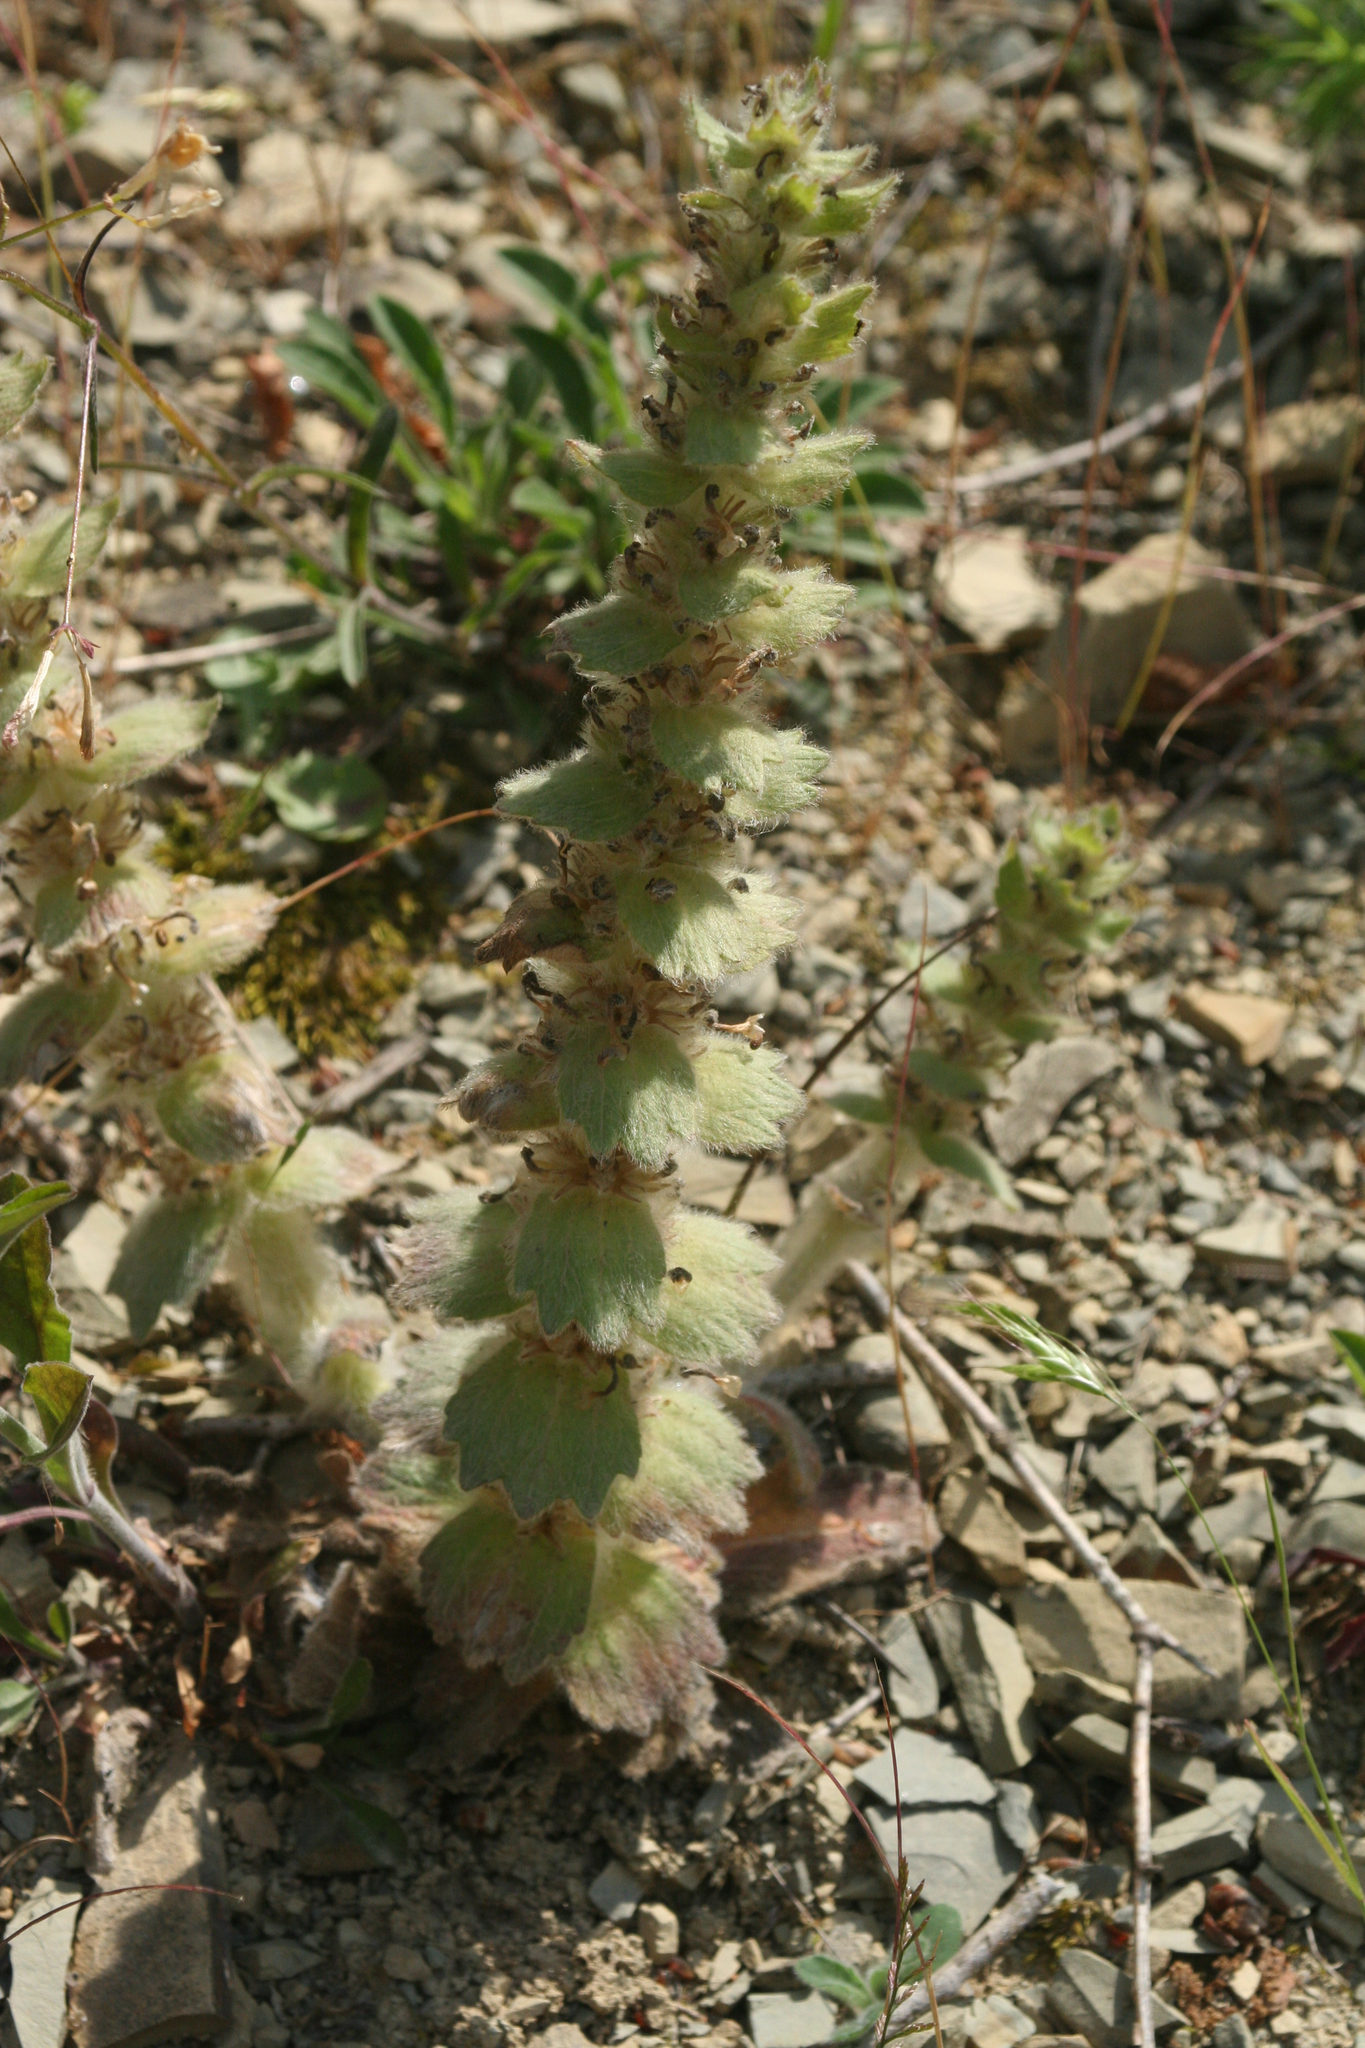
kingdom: Plantae
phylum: Tracheophyta
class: Magnoliopsida
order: Lamiales
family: Lamiaceae
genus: Ajuga
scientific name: Ajuga orientalis
